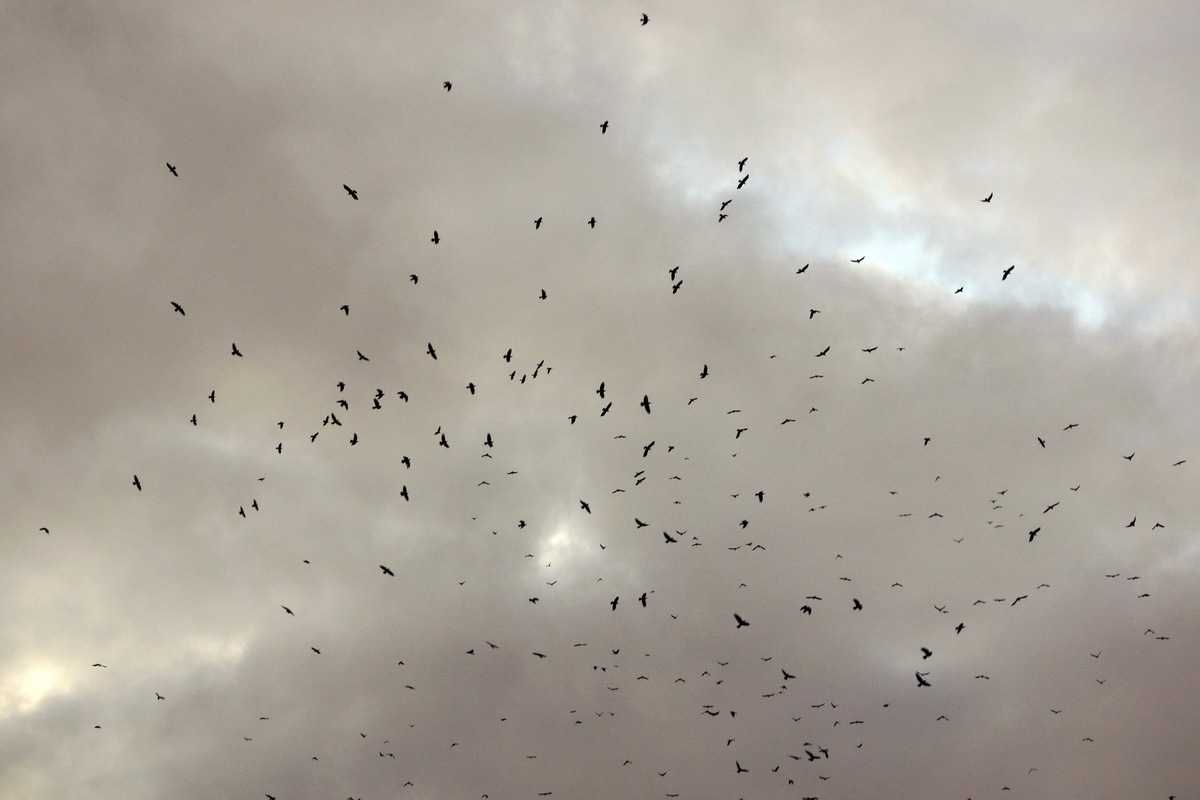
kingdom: Animalia
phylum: Chordata
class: Aves
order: Passeriformes
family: Corvidae
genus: Corvus
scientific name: Corvus frugilegus
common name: Rook
